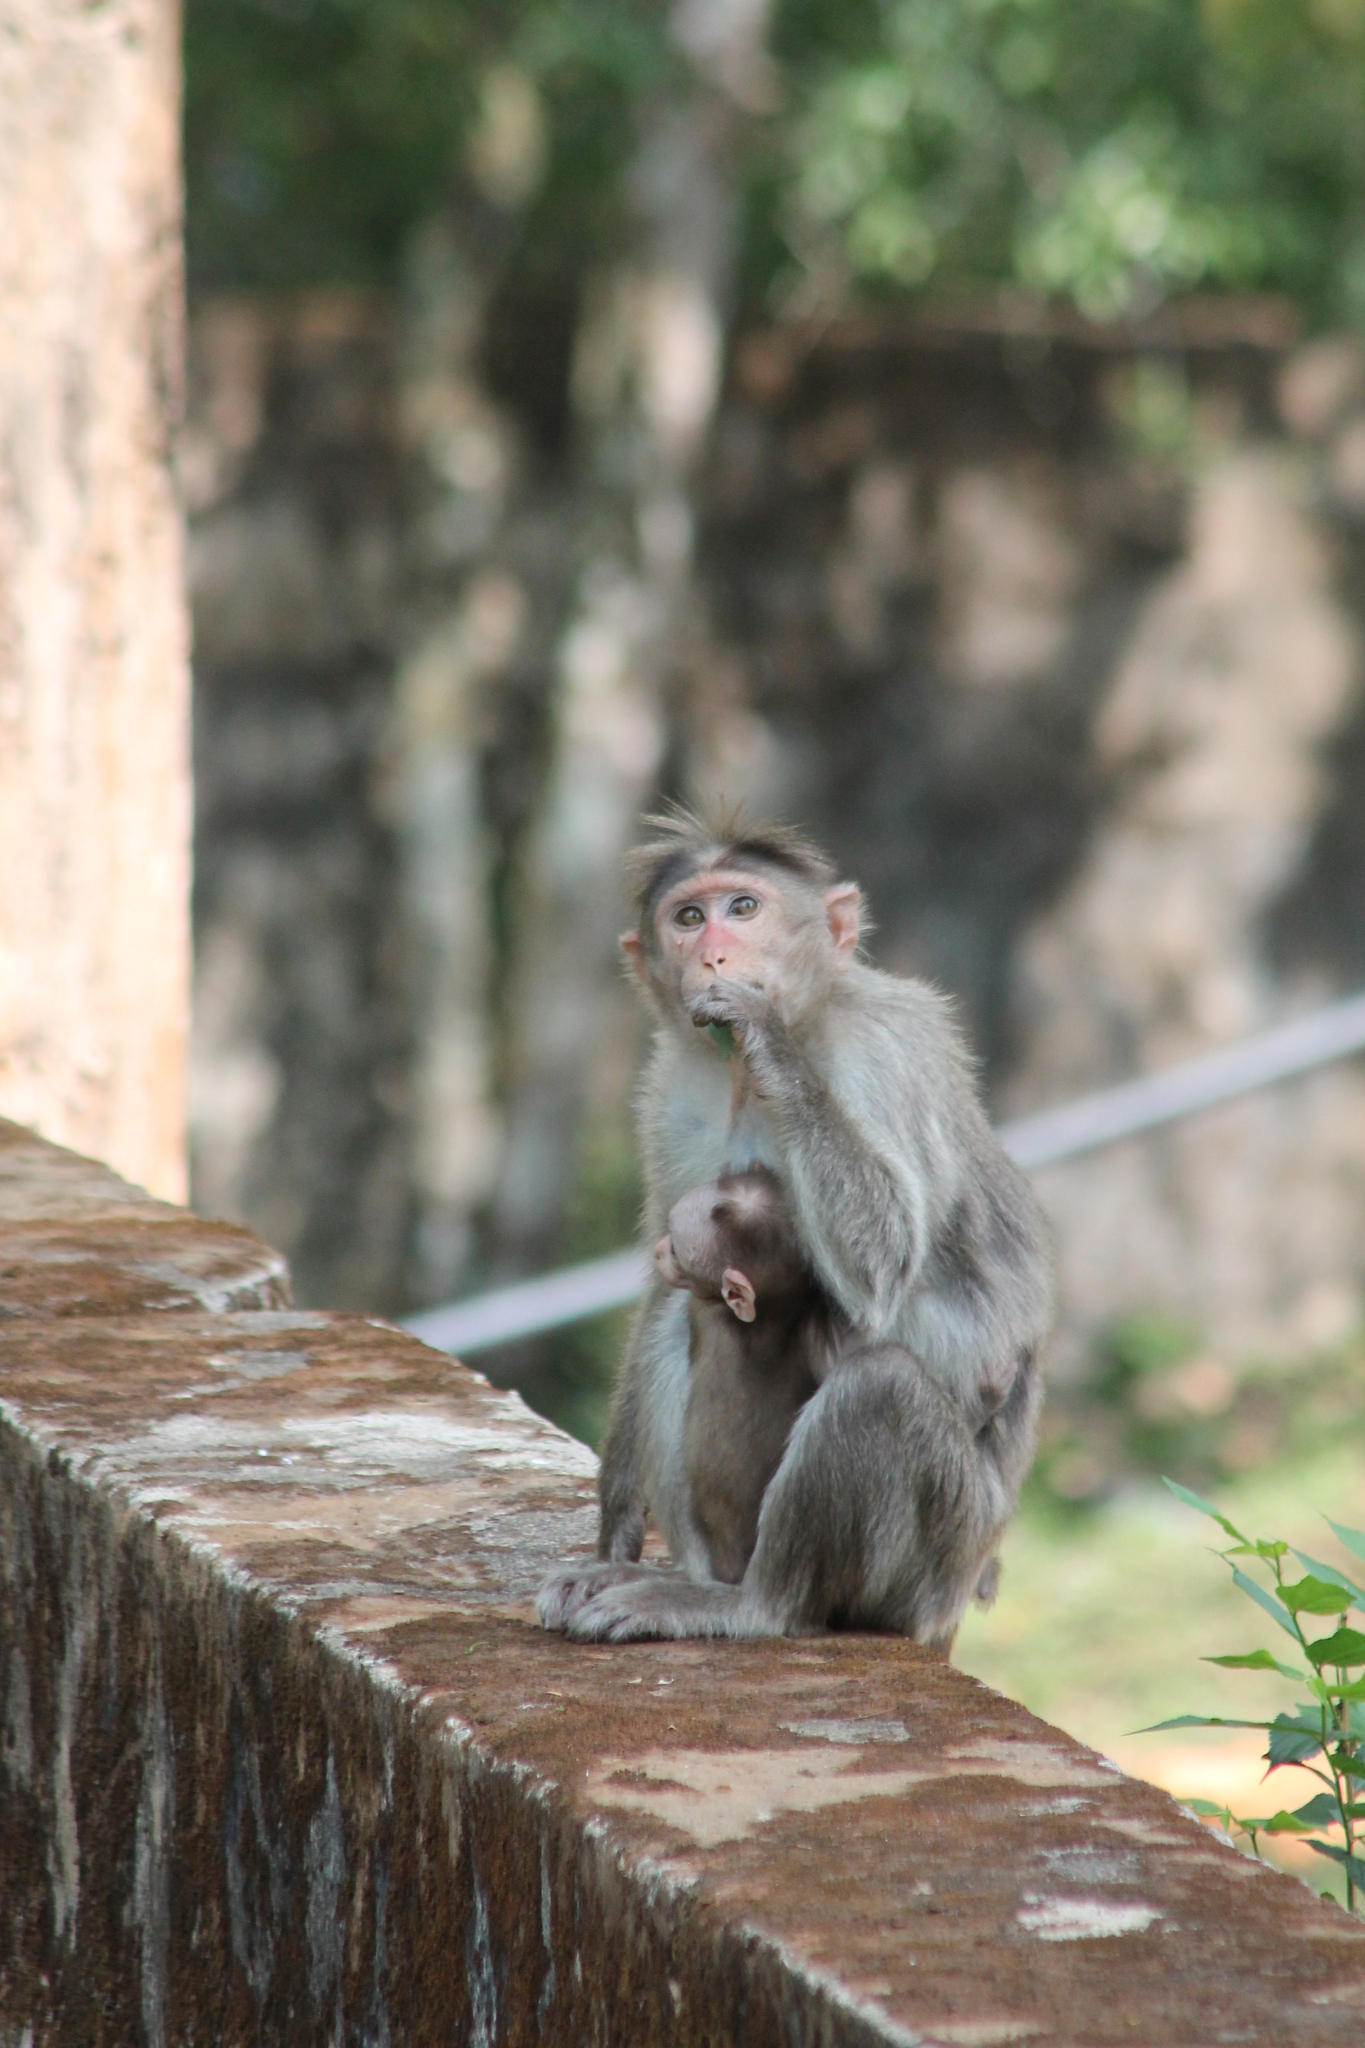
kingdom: Animalia
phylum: Chordata
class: Mammalia
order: Primates
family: Cercopithecidae
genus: Macaca
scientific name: Macaca radiata
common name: Bonnet macaque
